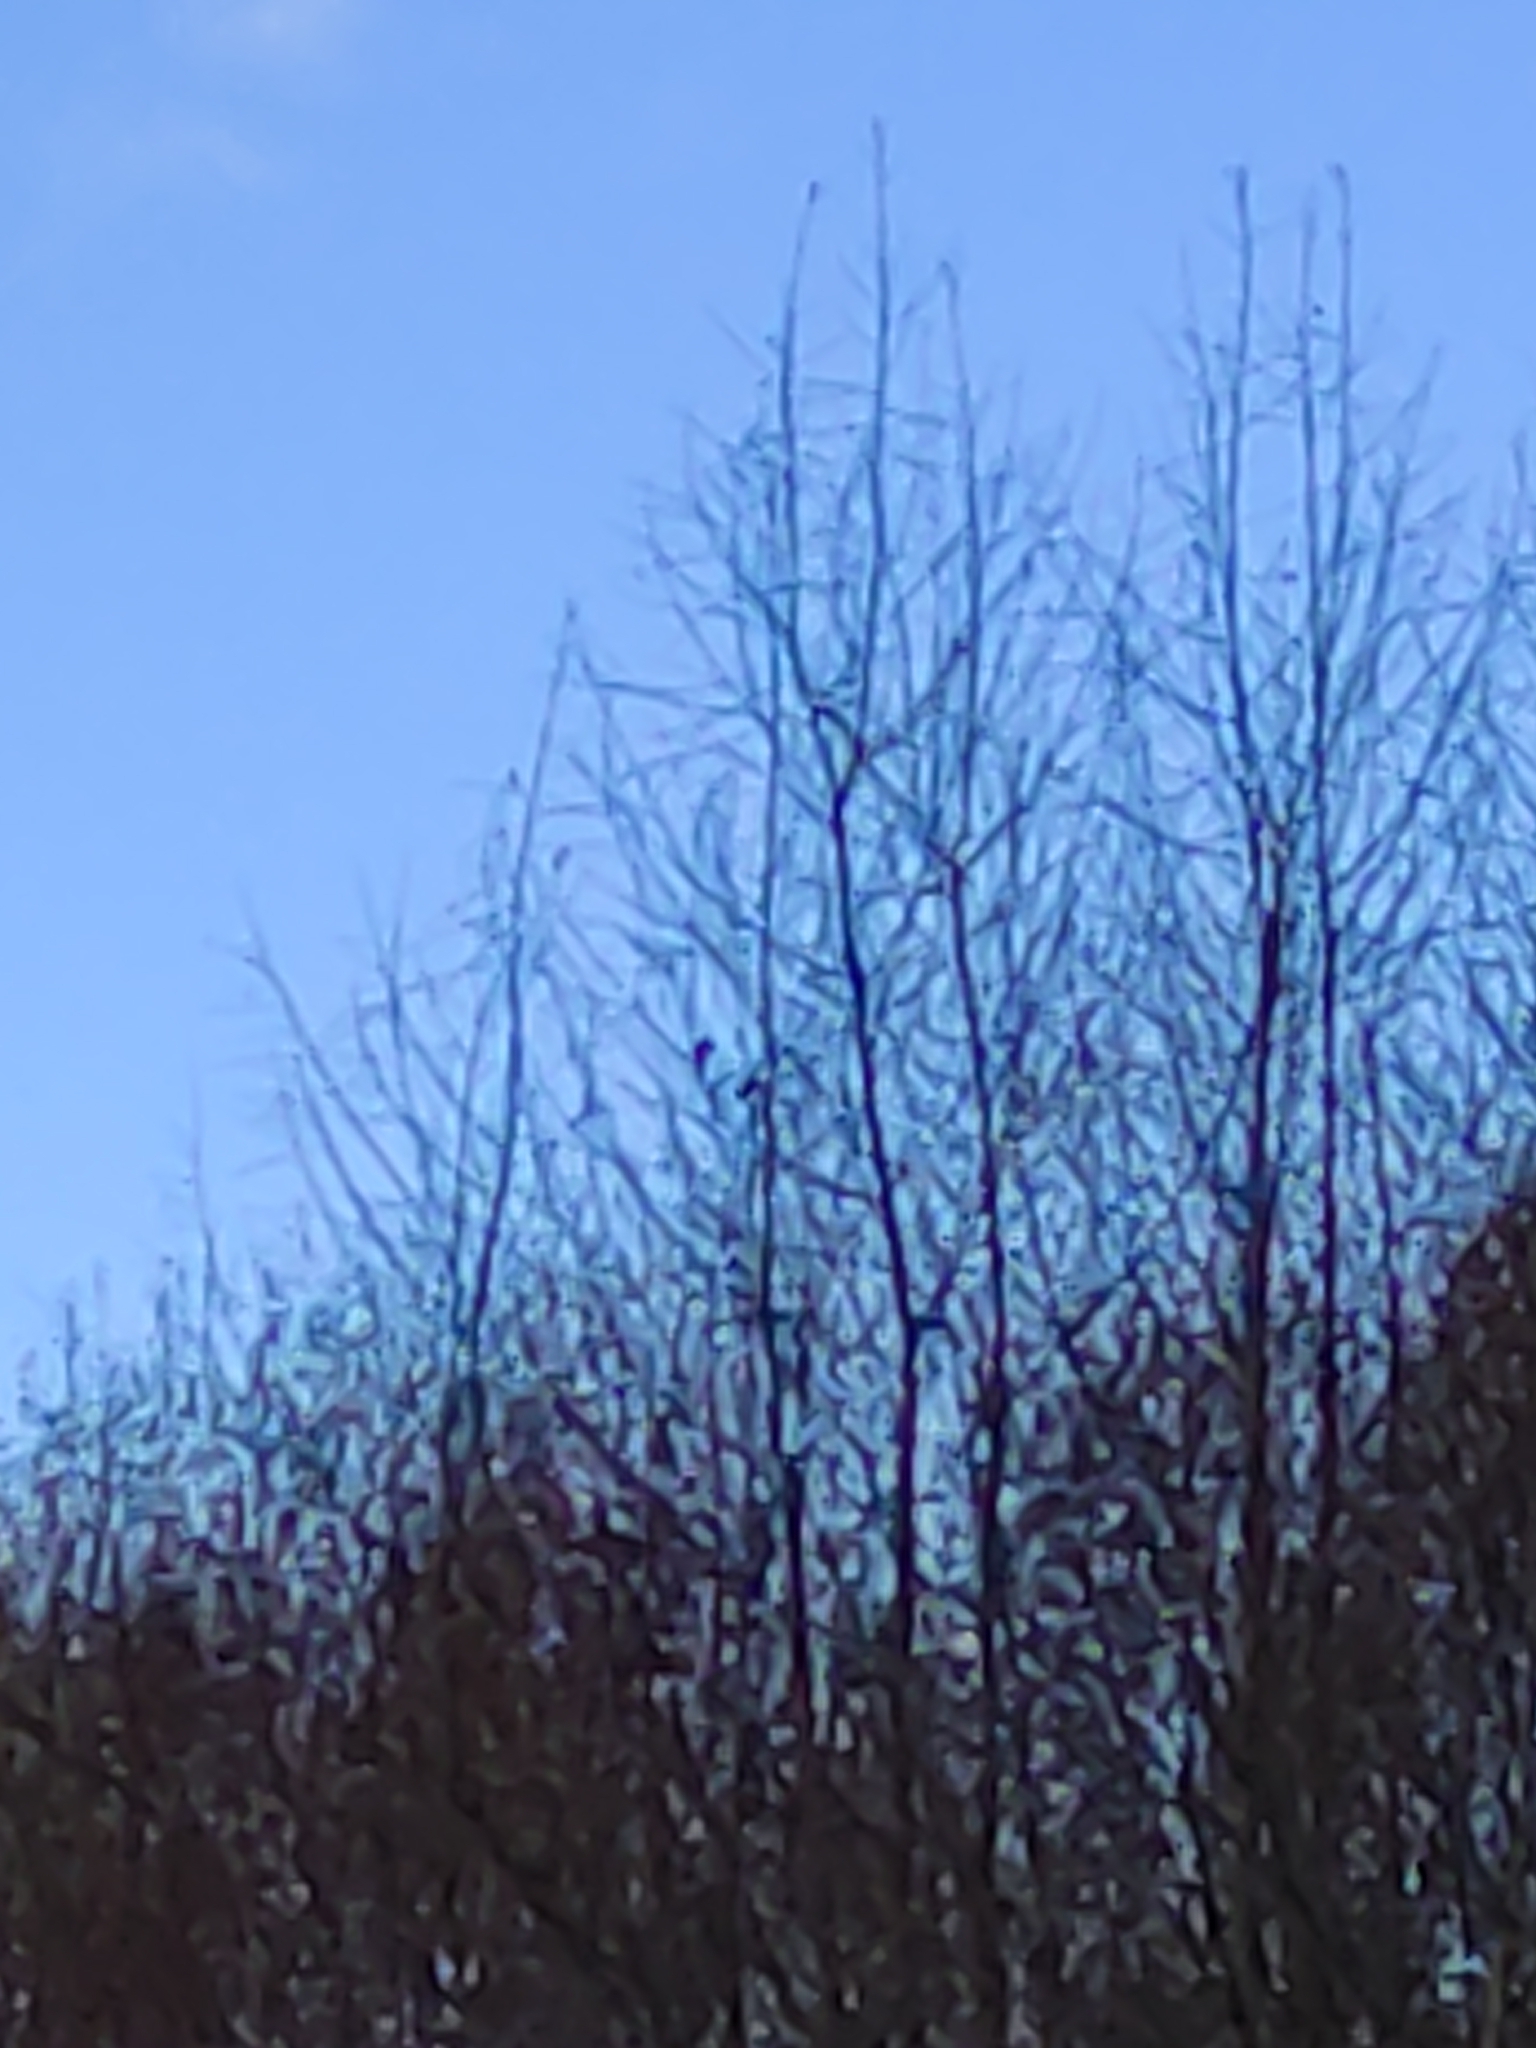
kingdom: Animalia
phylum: Chordata
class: Aves
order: Passeriformes
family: Zosteropidae
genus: Zosterops
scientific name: Zosterops lateralis
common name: Silvereye
